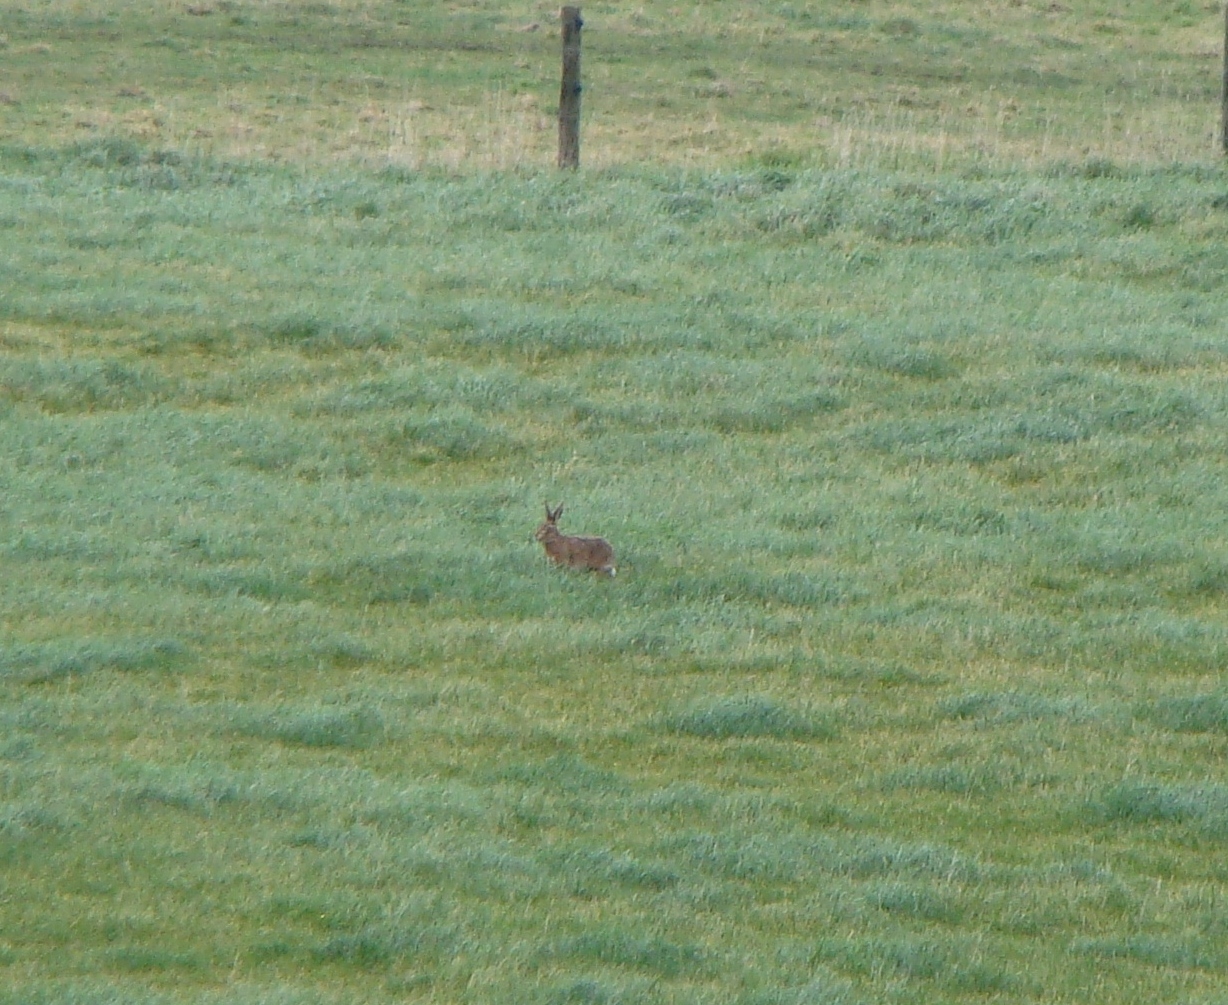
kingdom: Animalia
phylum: Chordata
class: Mammalia
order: Lagomorpha
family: Leporidae
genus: Lepus
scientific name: Lepus europaeus
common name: European hare
